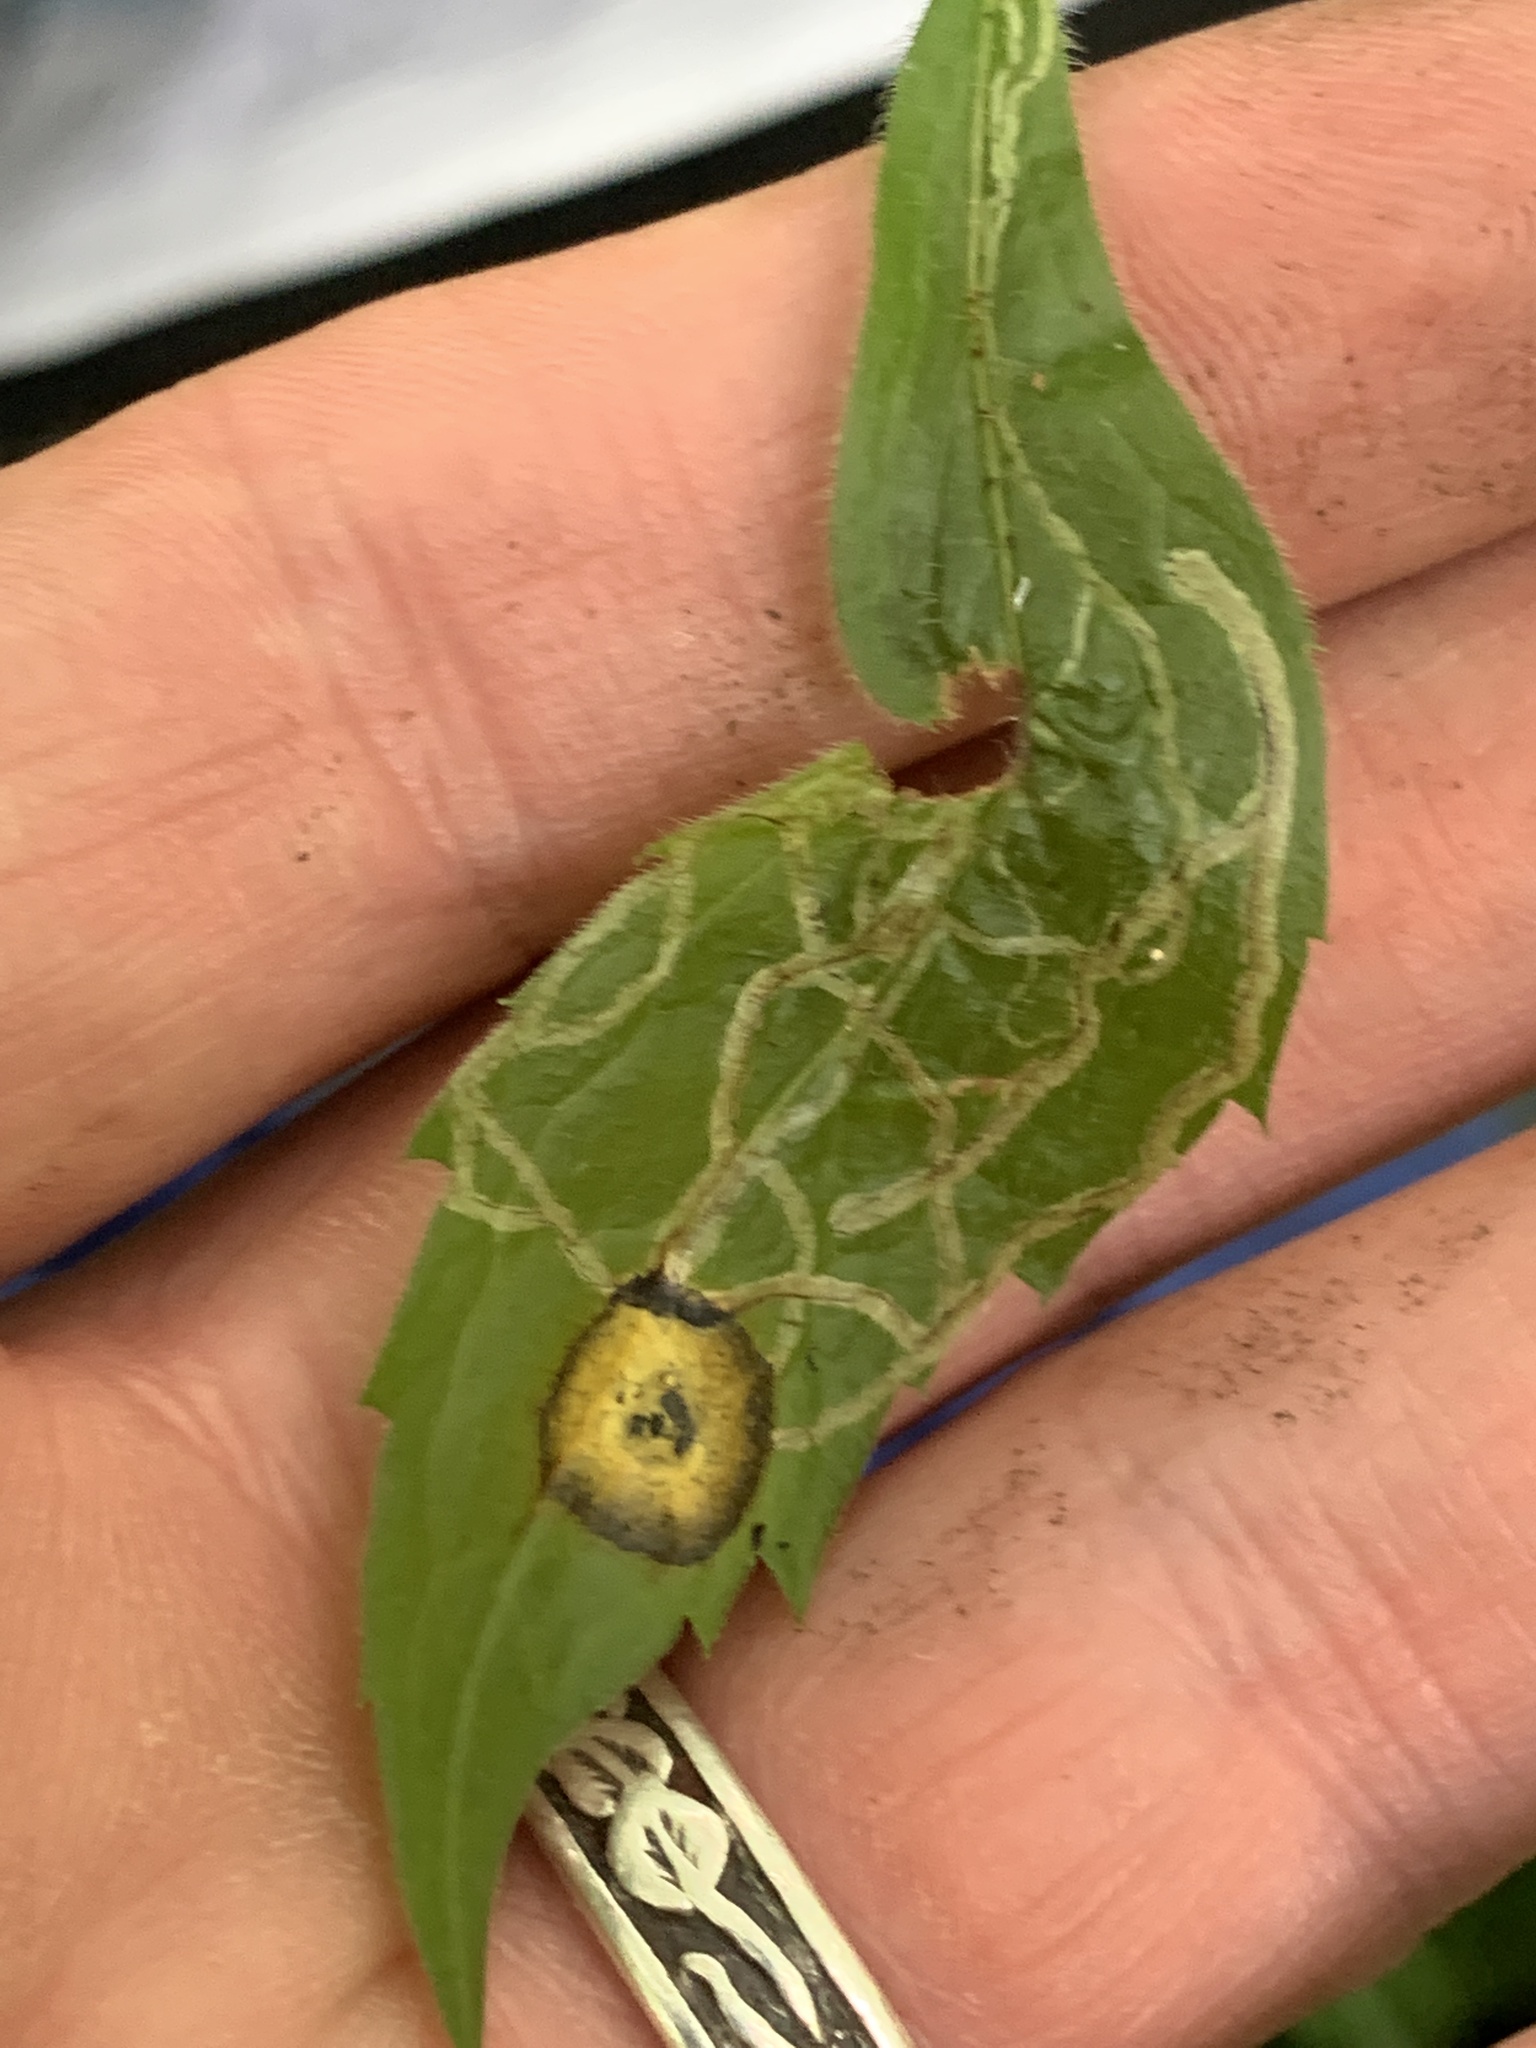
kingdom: Animalia
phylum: Arthropoda
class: Insecta
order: Diptera
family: Agromyzidae
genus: Ophiomyia
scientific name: Ophiomyia maura
